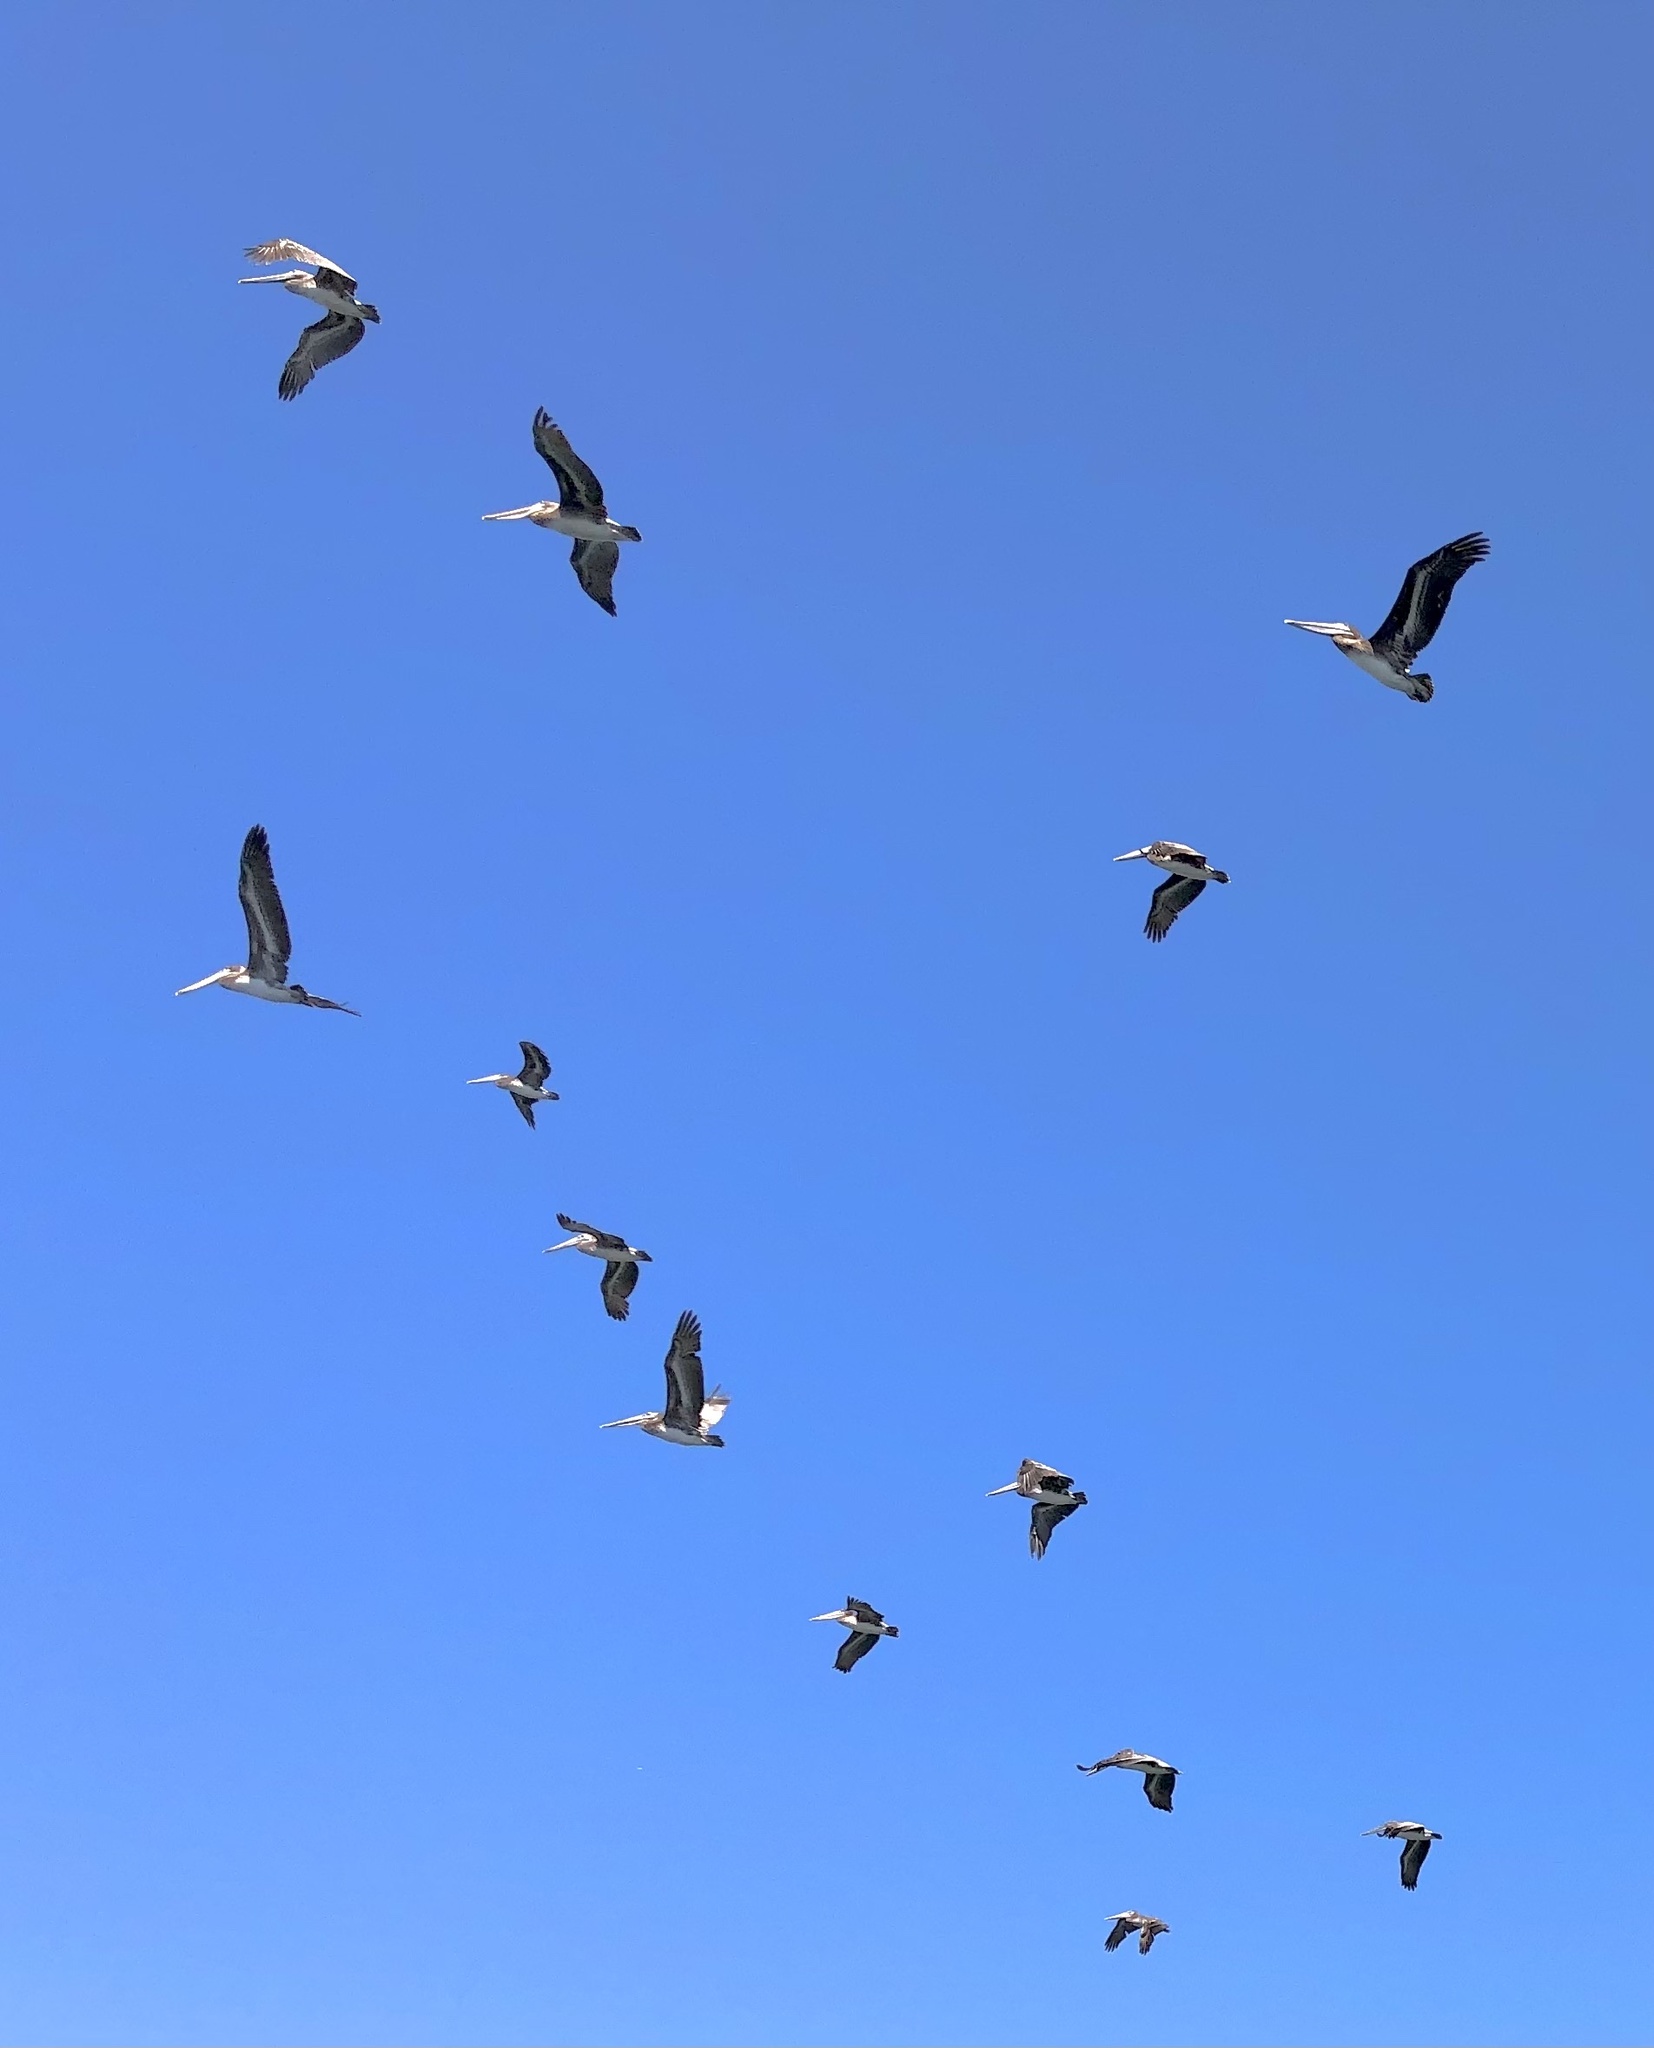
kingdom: Animalia
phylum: Chordata
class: Aves
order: Pelecaniformes
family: Pelecanidae
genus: Pelecanus
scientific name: Pelecanus occidentalis
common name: Brown pelican
